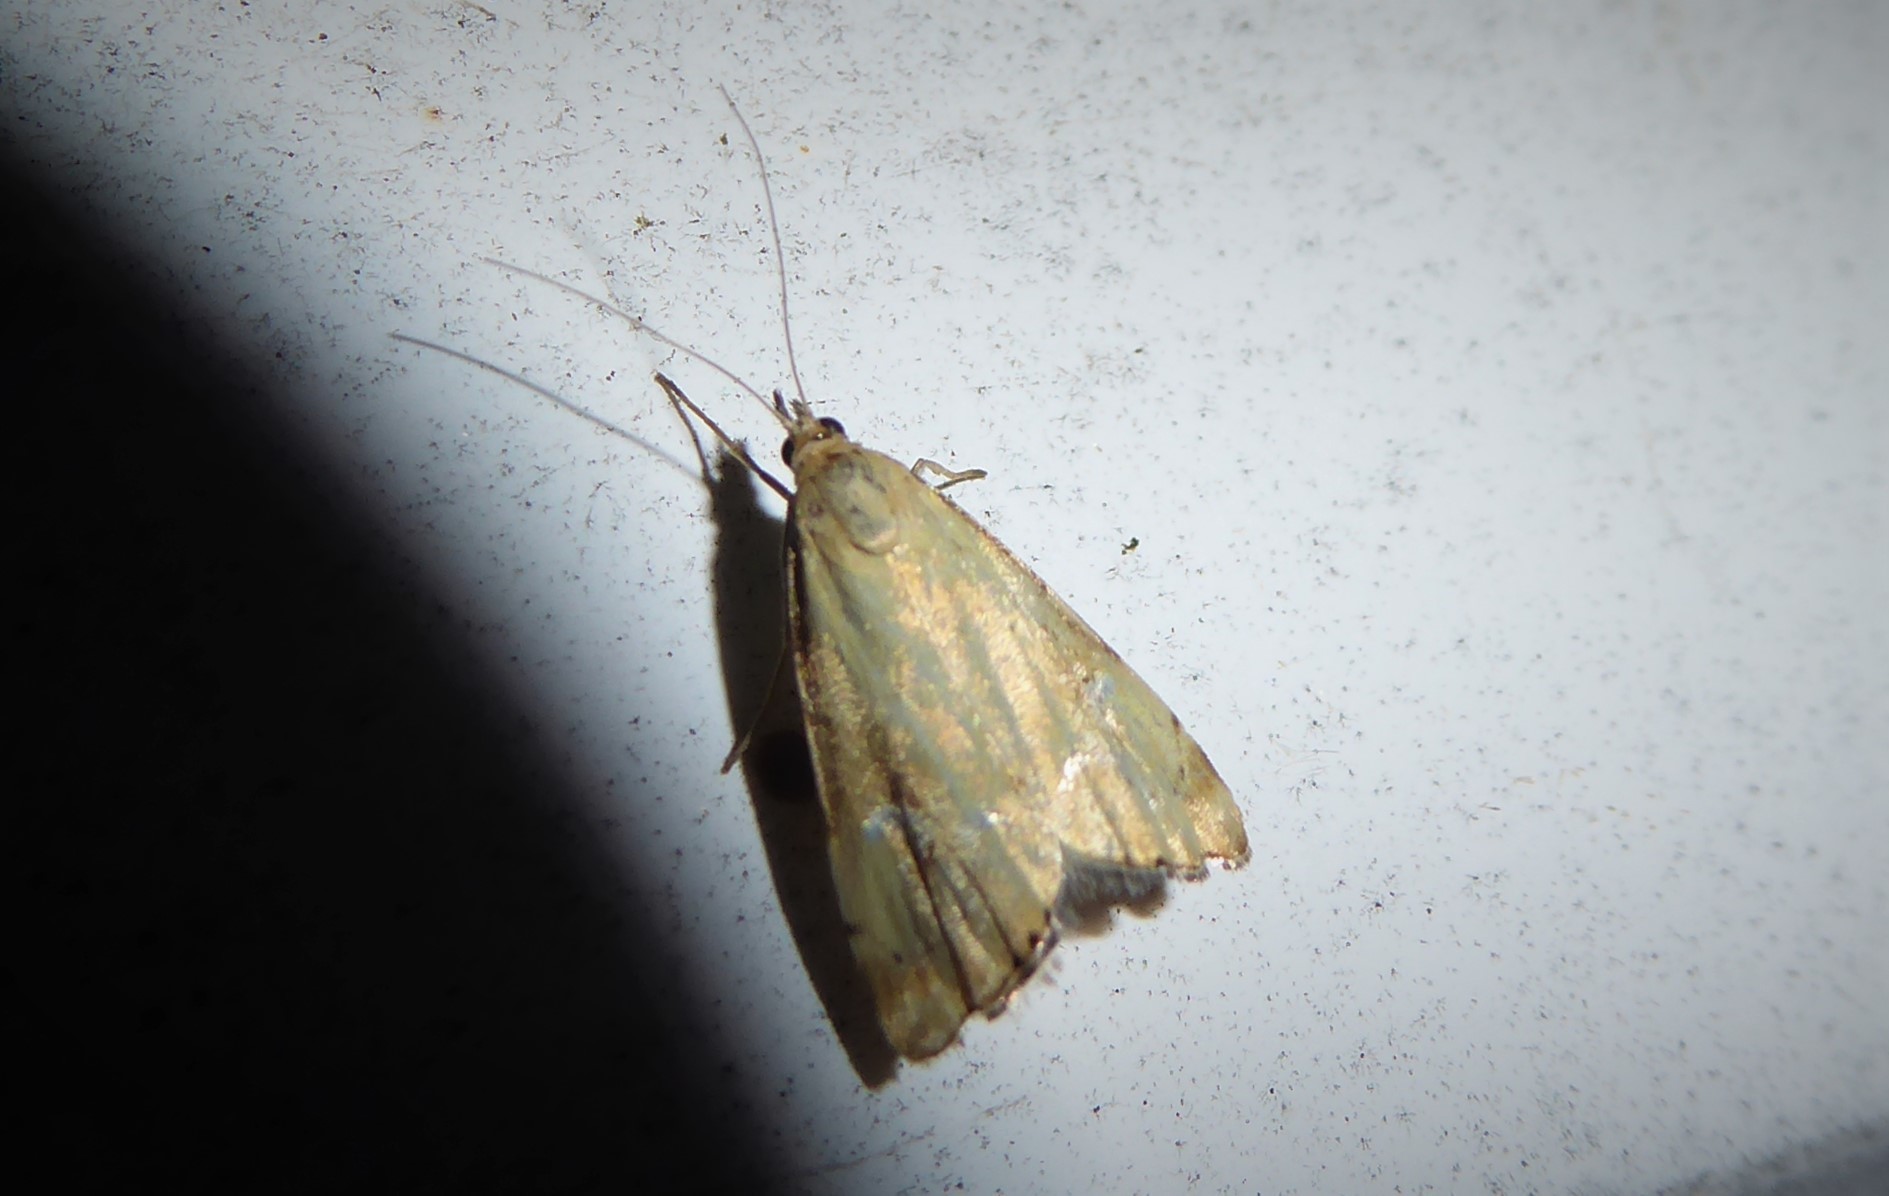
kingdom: Animalia
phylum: Arthropoda
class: Insecta
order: Lepidoptera
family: Crambidae
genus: Glaucocharis
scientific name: Glaucocharis lepidella
